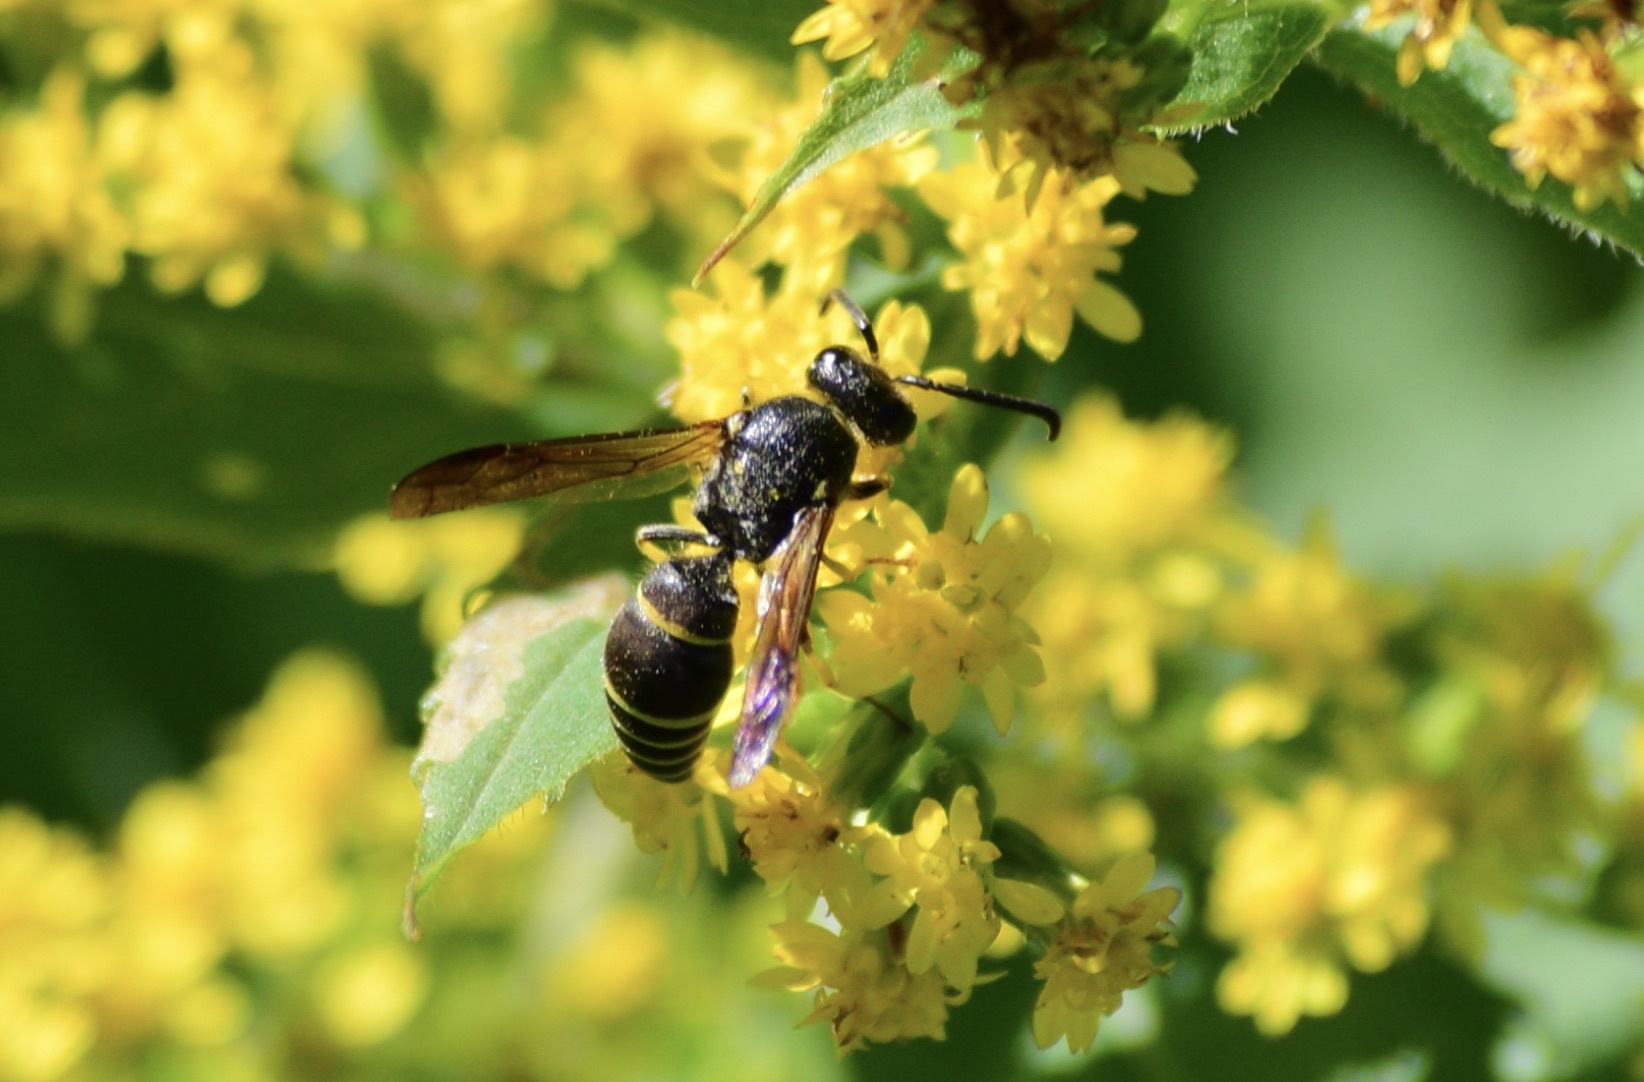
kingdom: Animalia
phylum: Arthropoda
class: Insecta
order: Hymenoptera
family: Vespidae
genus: Ancistrocerus
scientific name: Ancistrocerus
